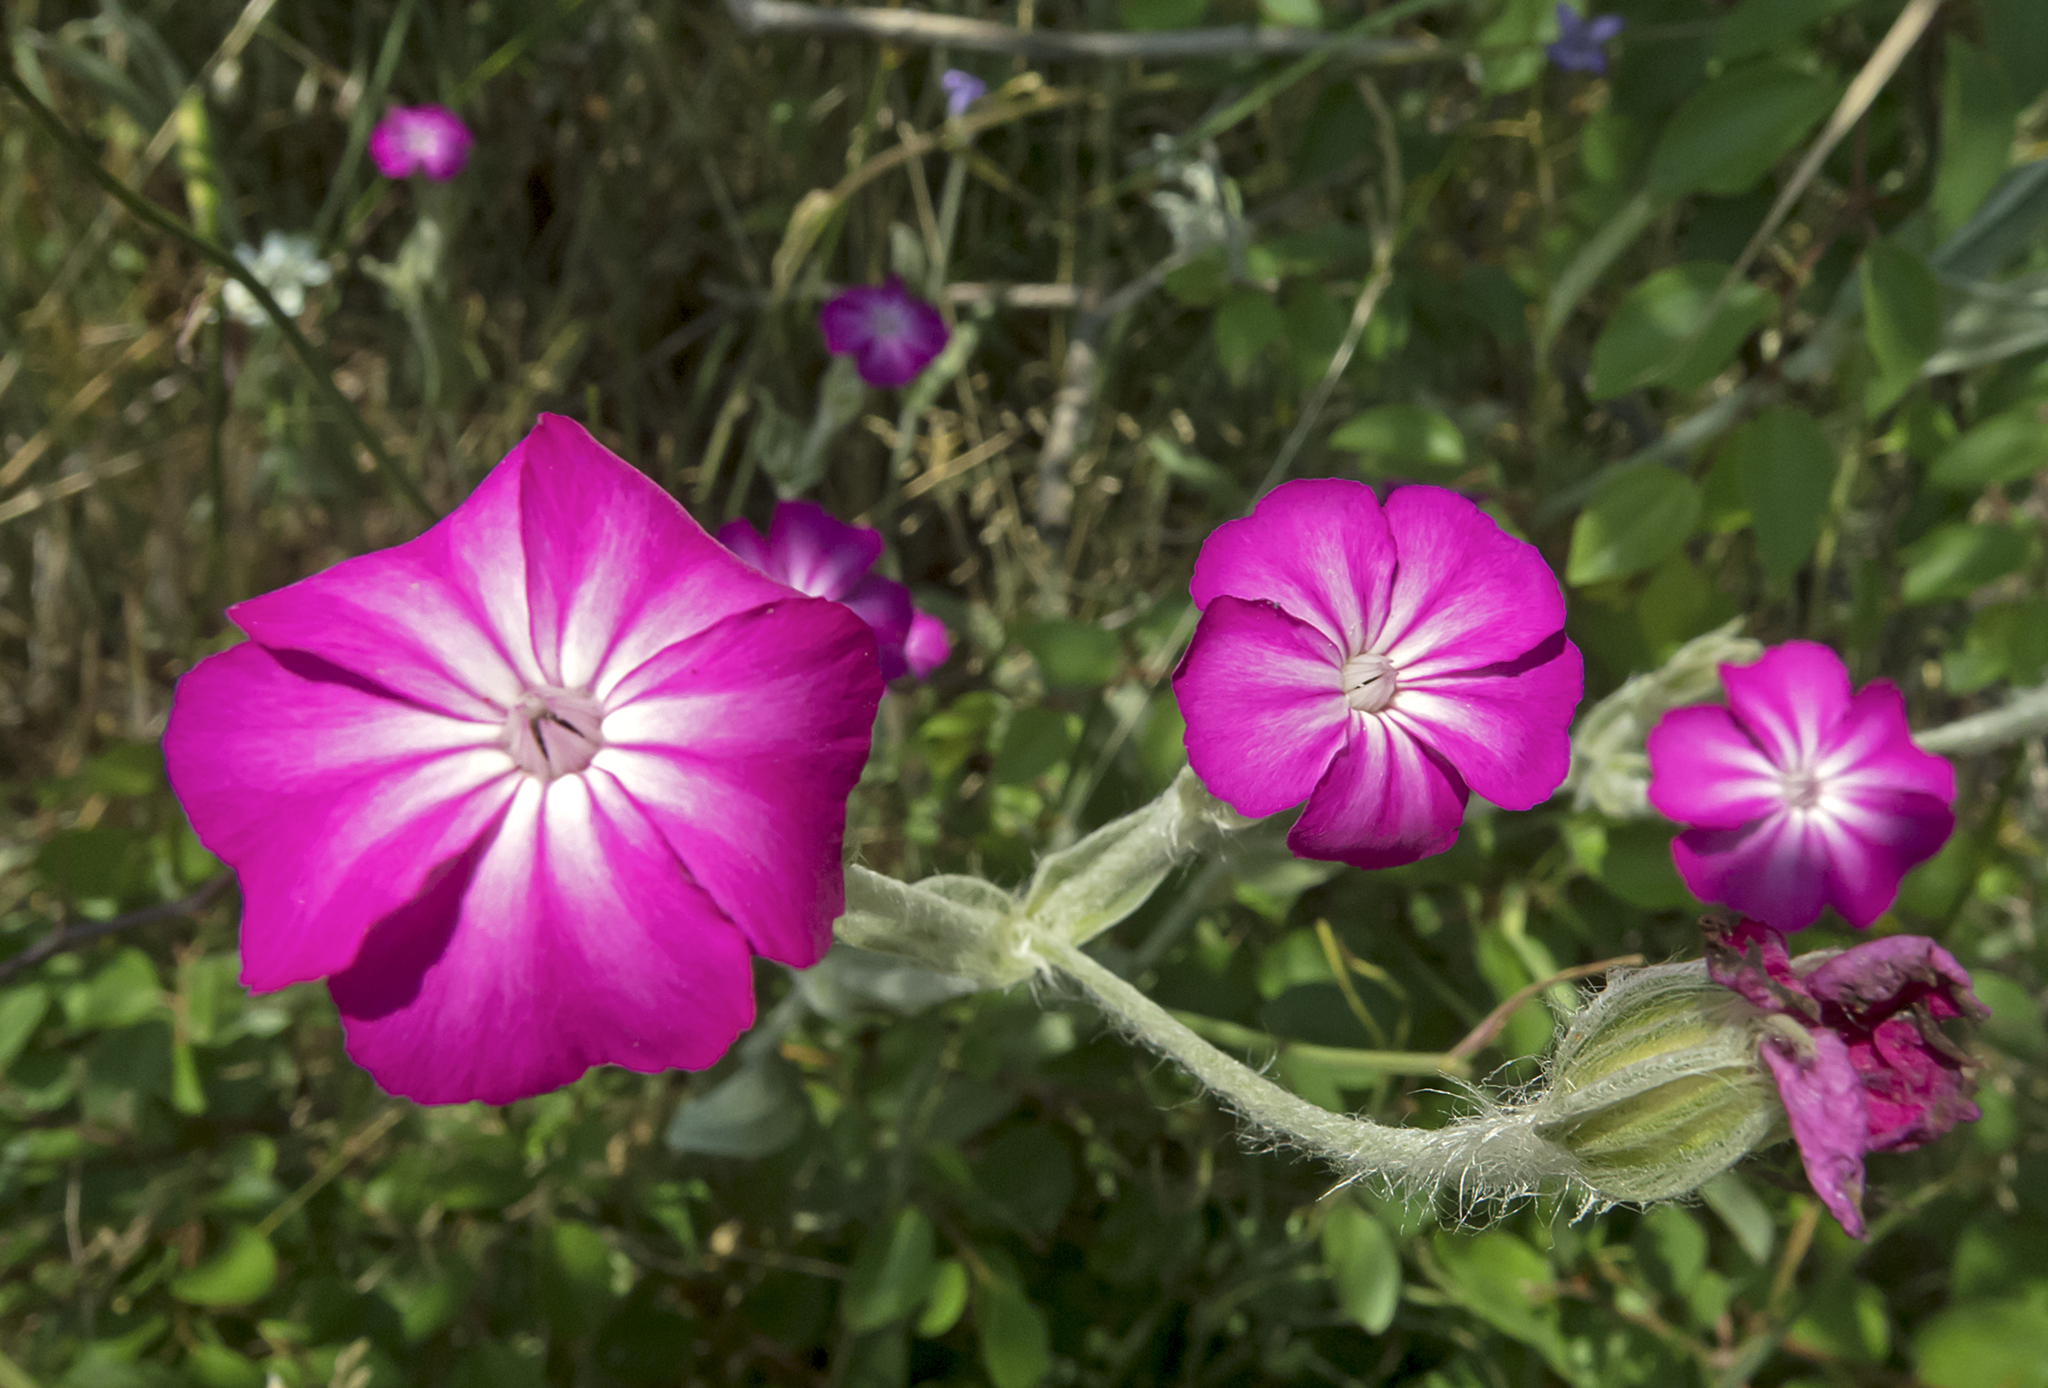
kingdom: Plantae
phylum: Tracheophyta
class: Magnoliopsida
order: Caryophyllales
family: Caryophyllaceae
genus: Silene
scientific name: Silene coronaria
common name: Rose campion
